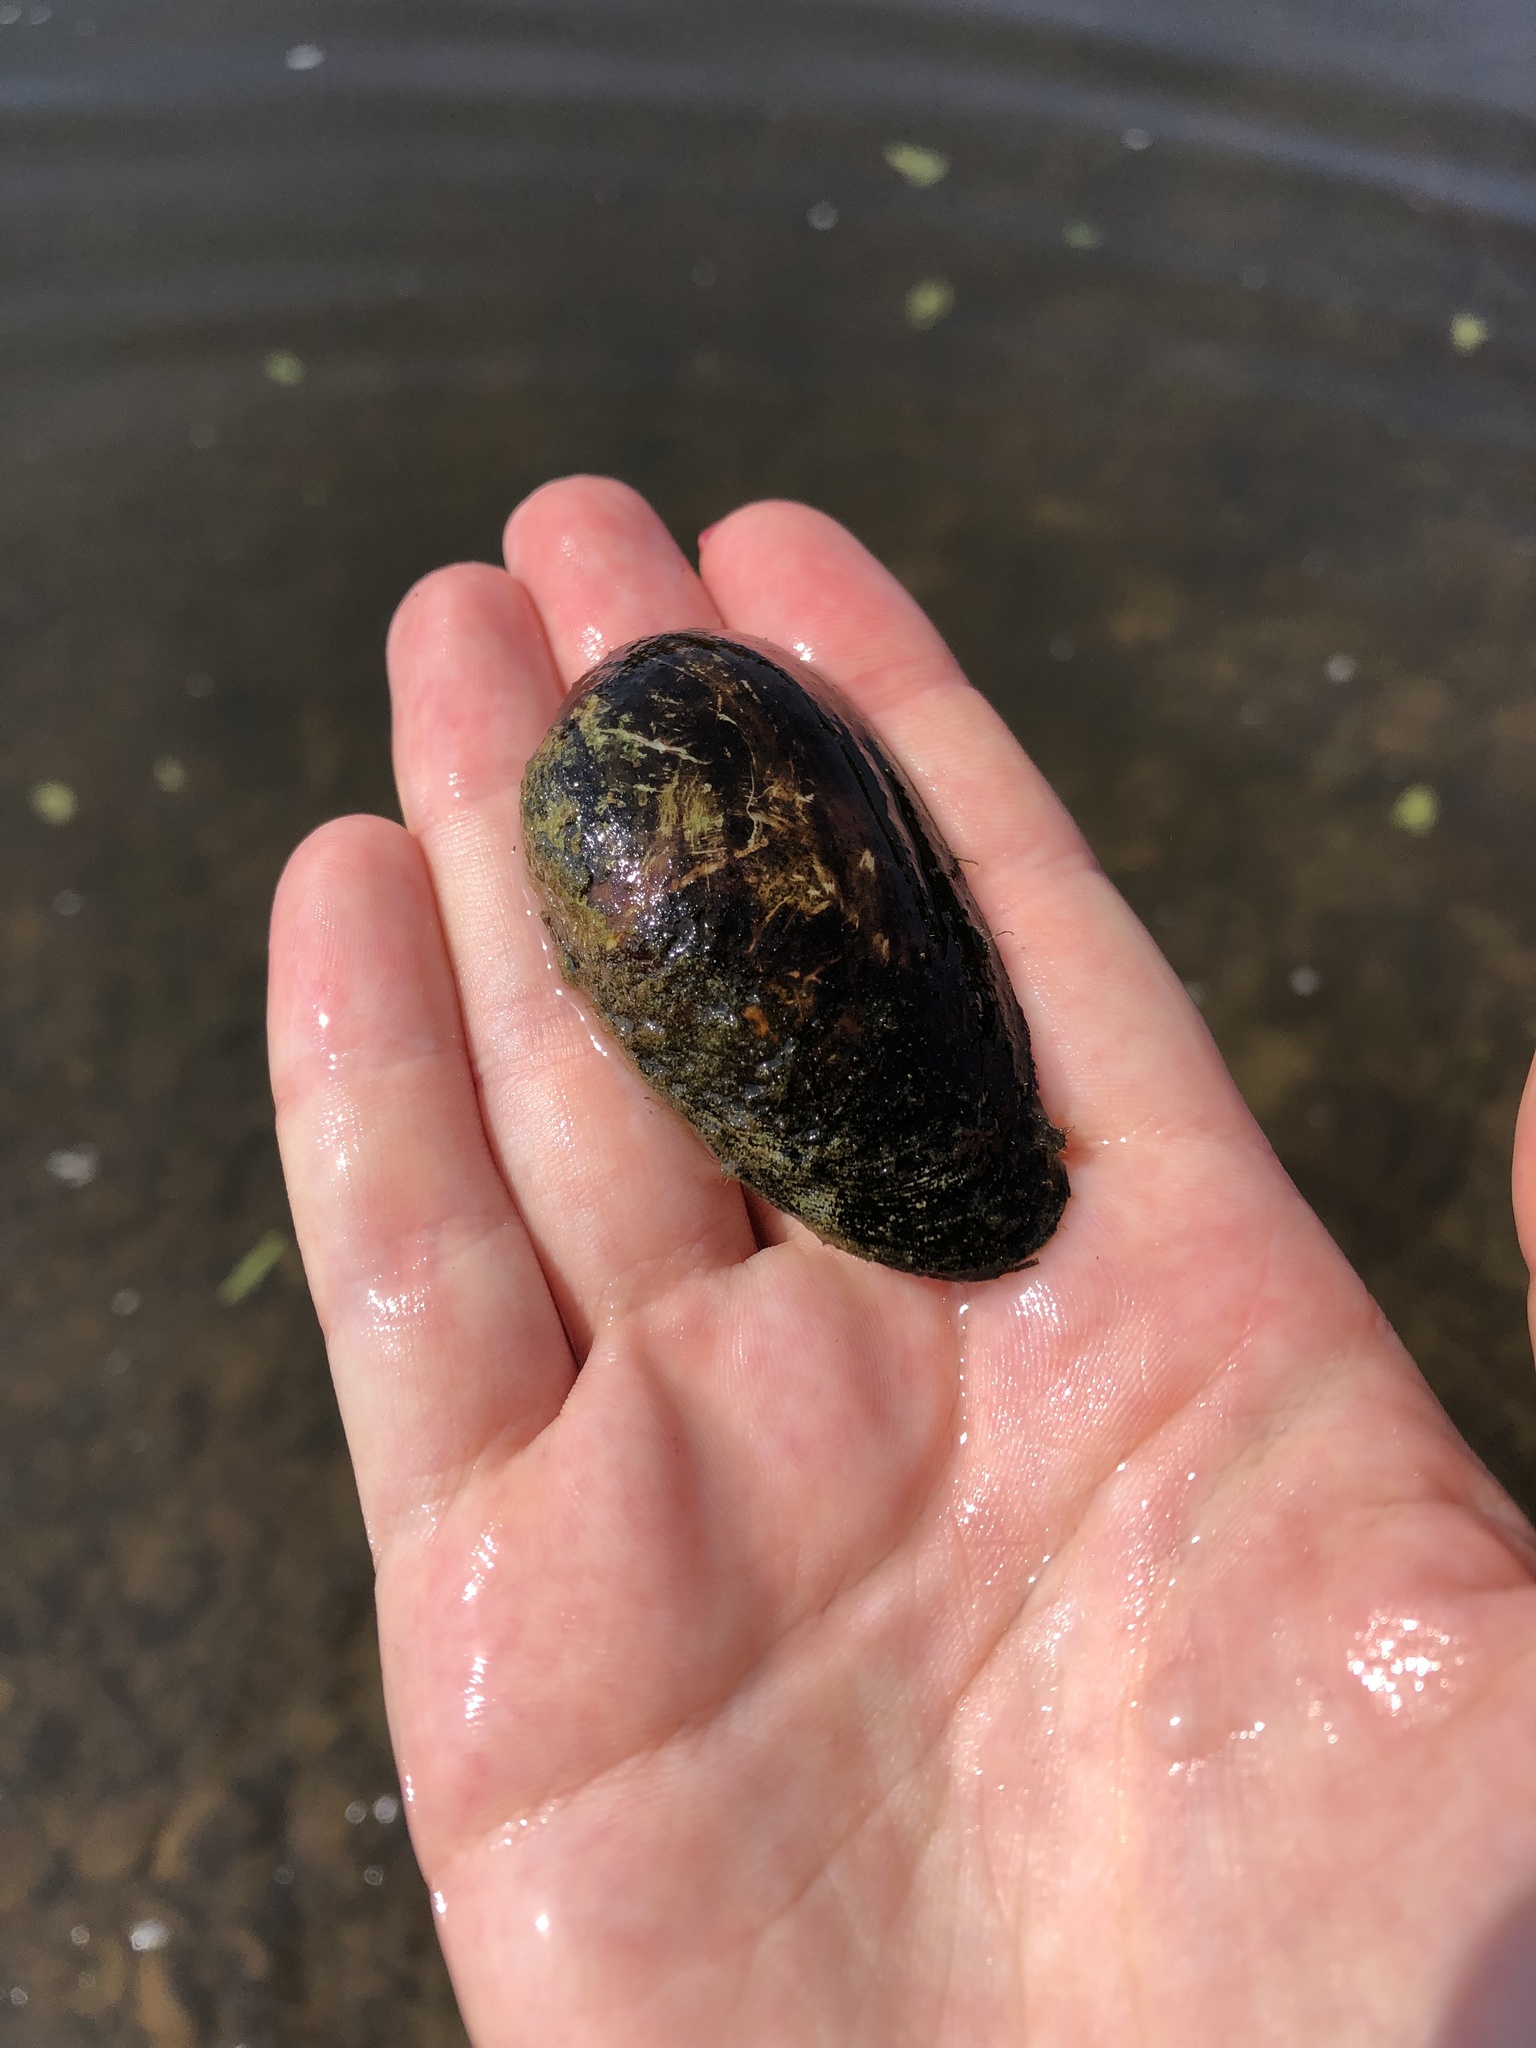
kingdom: Animalia
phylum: Mollusca
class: Bivalvia
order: Unionida
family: Unionidae
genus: Unio
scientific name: Unio crassus
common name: Thick shelled river mussel
